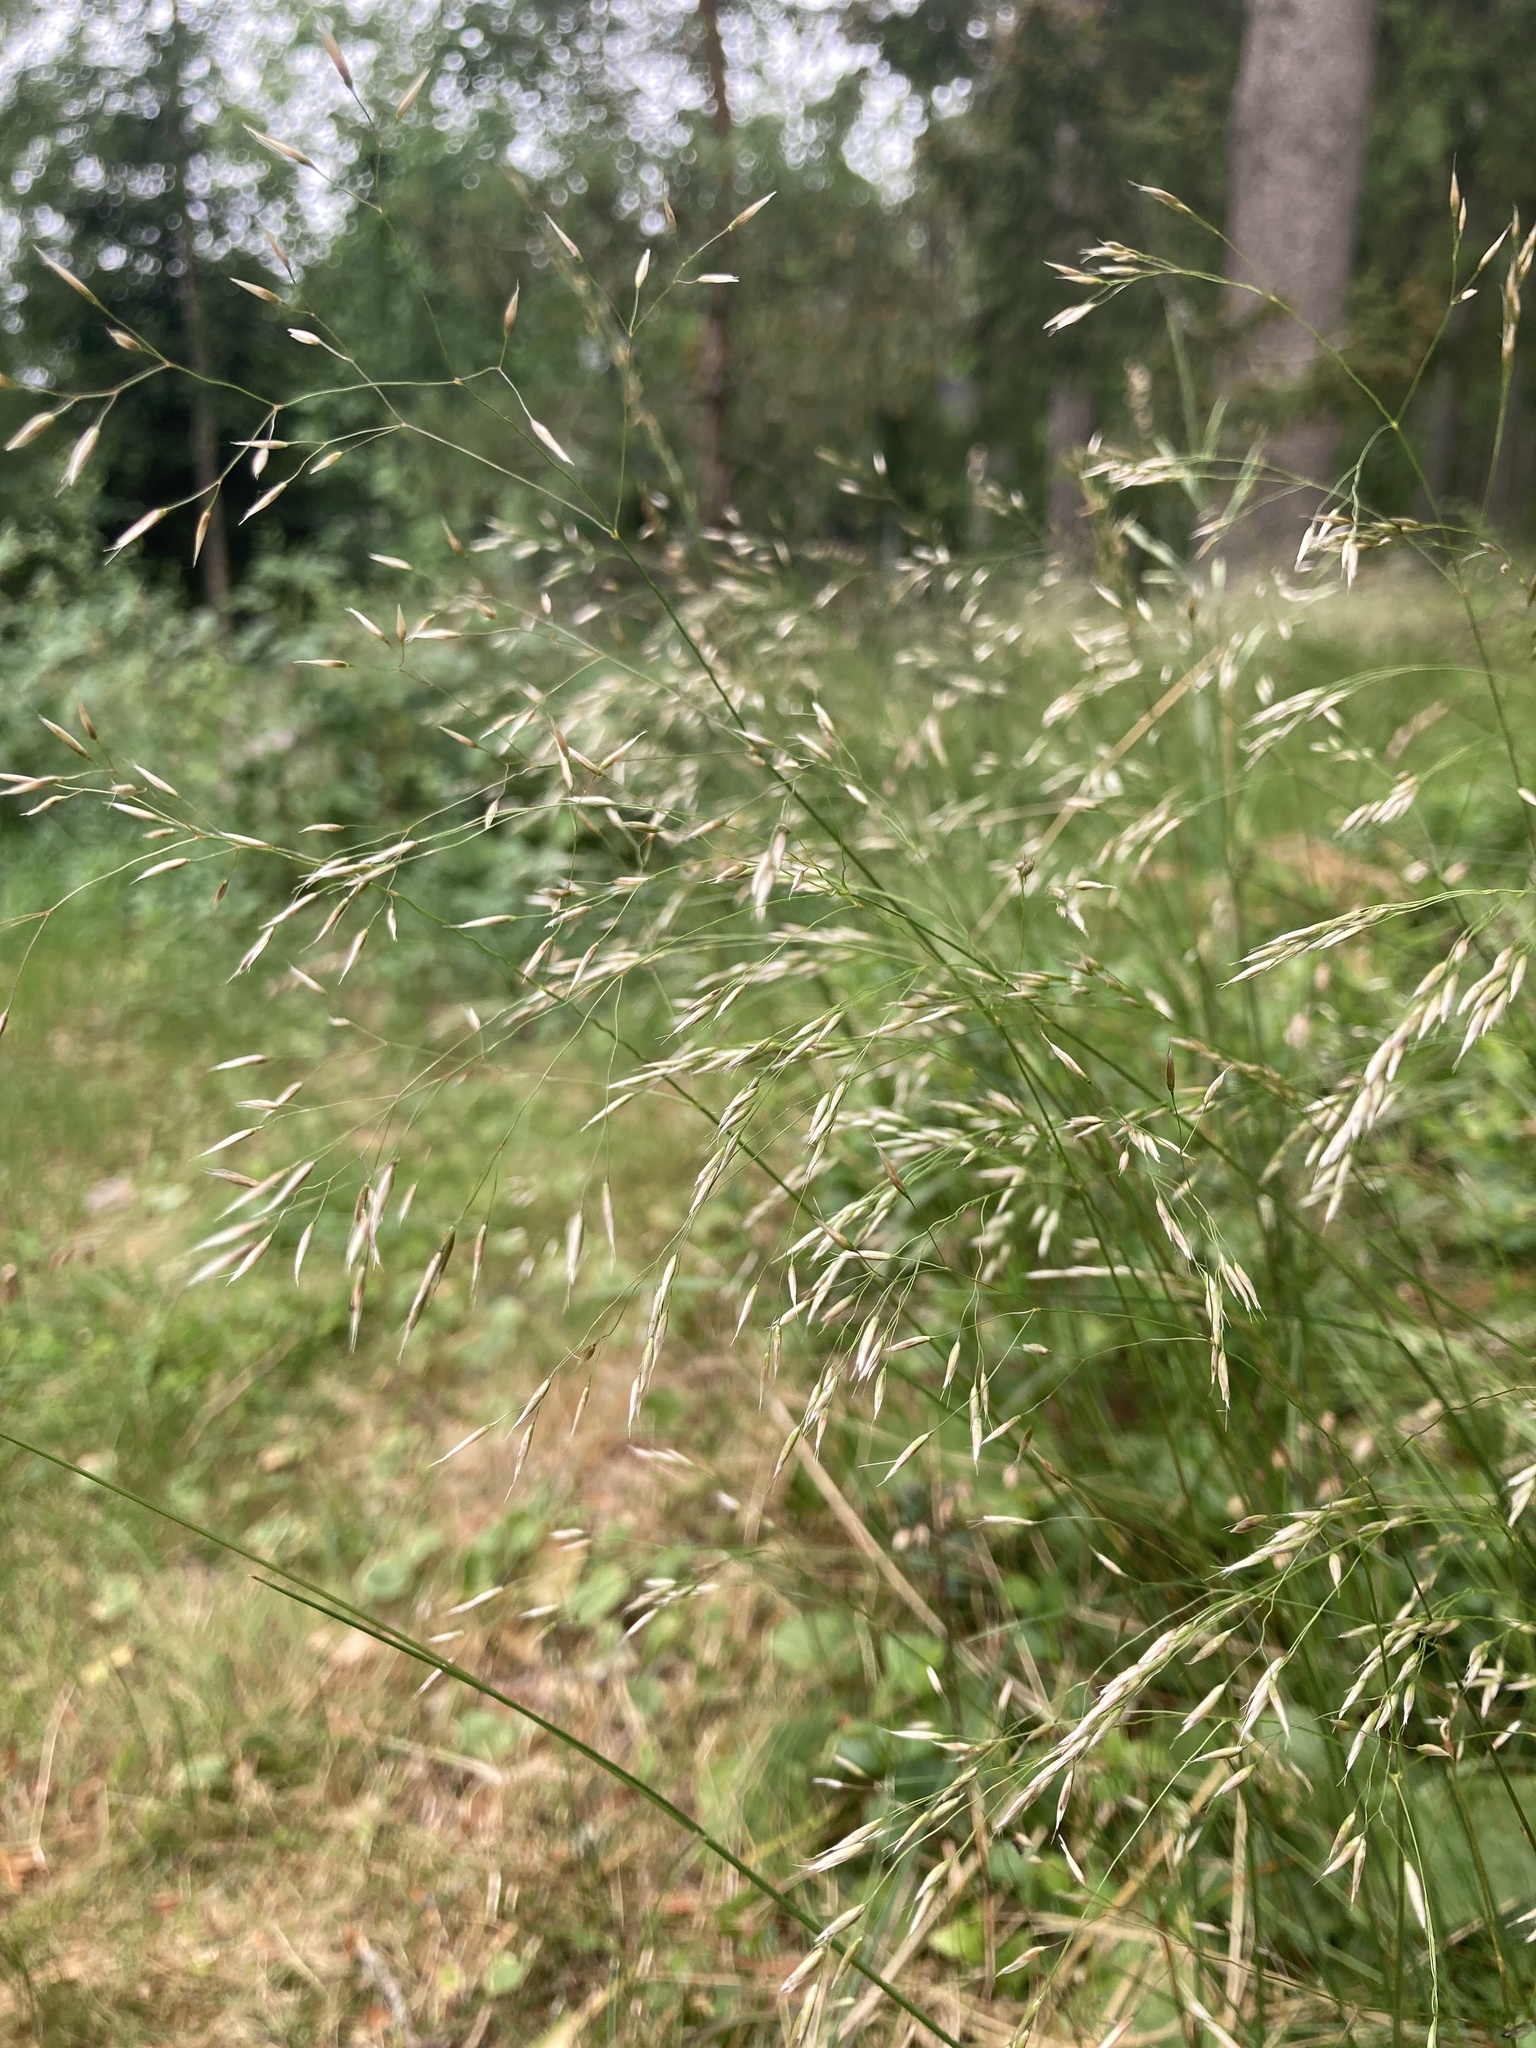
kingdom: Plantae
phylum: Tracheophyta
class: Liliopsida
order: Poales
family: Poaceae
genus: Avenella
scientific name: Avenella flexuosa
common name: Wavy hairgrass
